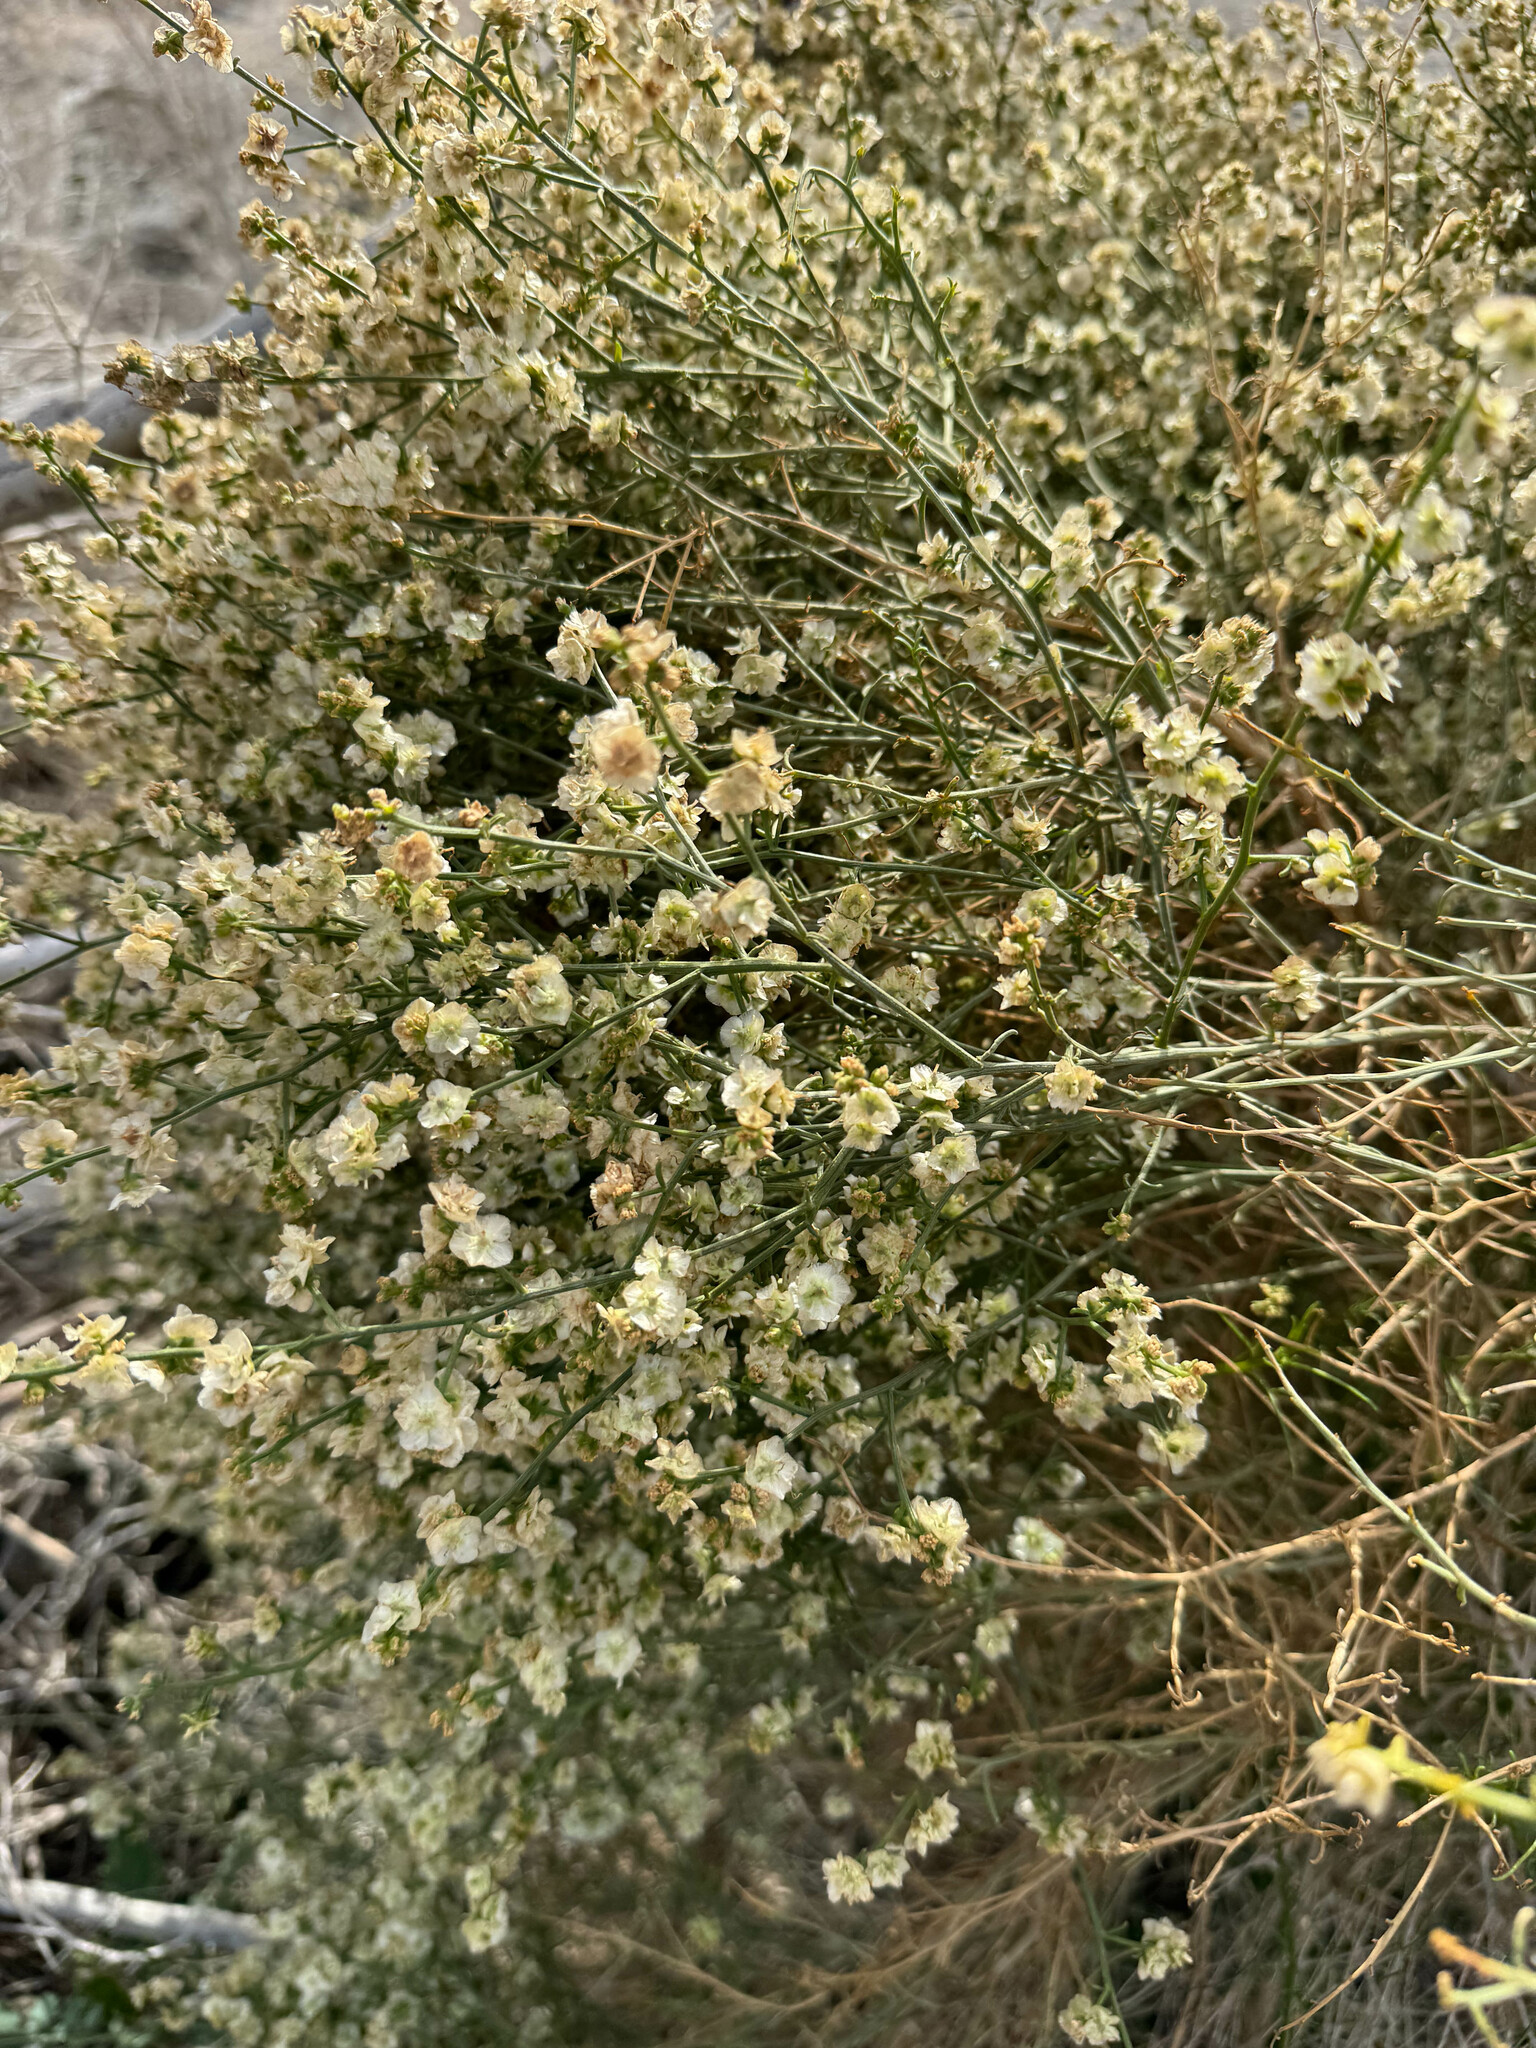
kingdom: Plantae
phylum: Tracheophyta
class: Magnoliopsida
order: Asterales
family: Asteraceae
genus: Ambrosia
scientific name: Ambrosia salsola
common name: Burrobrush
